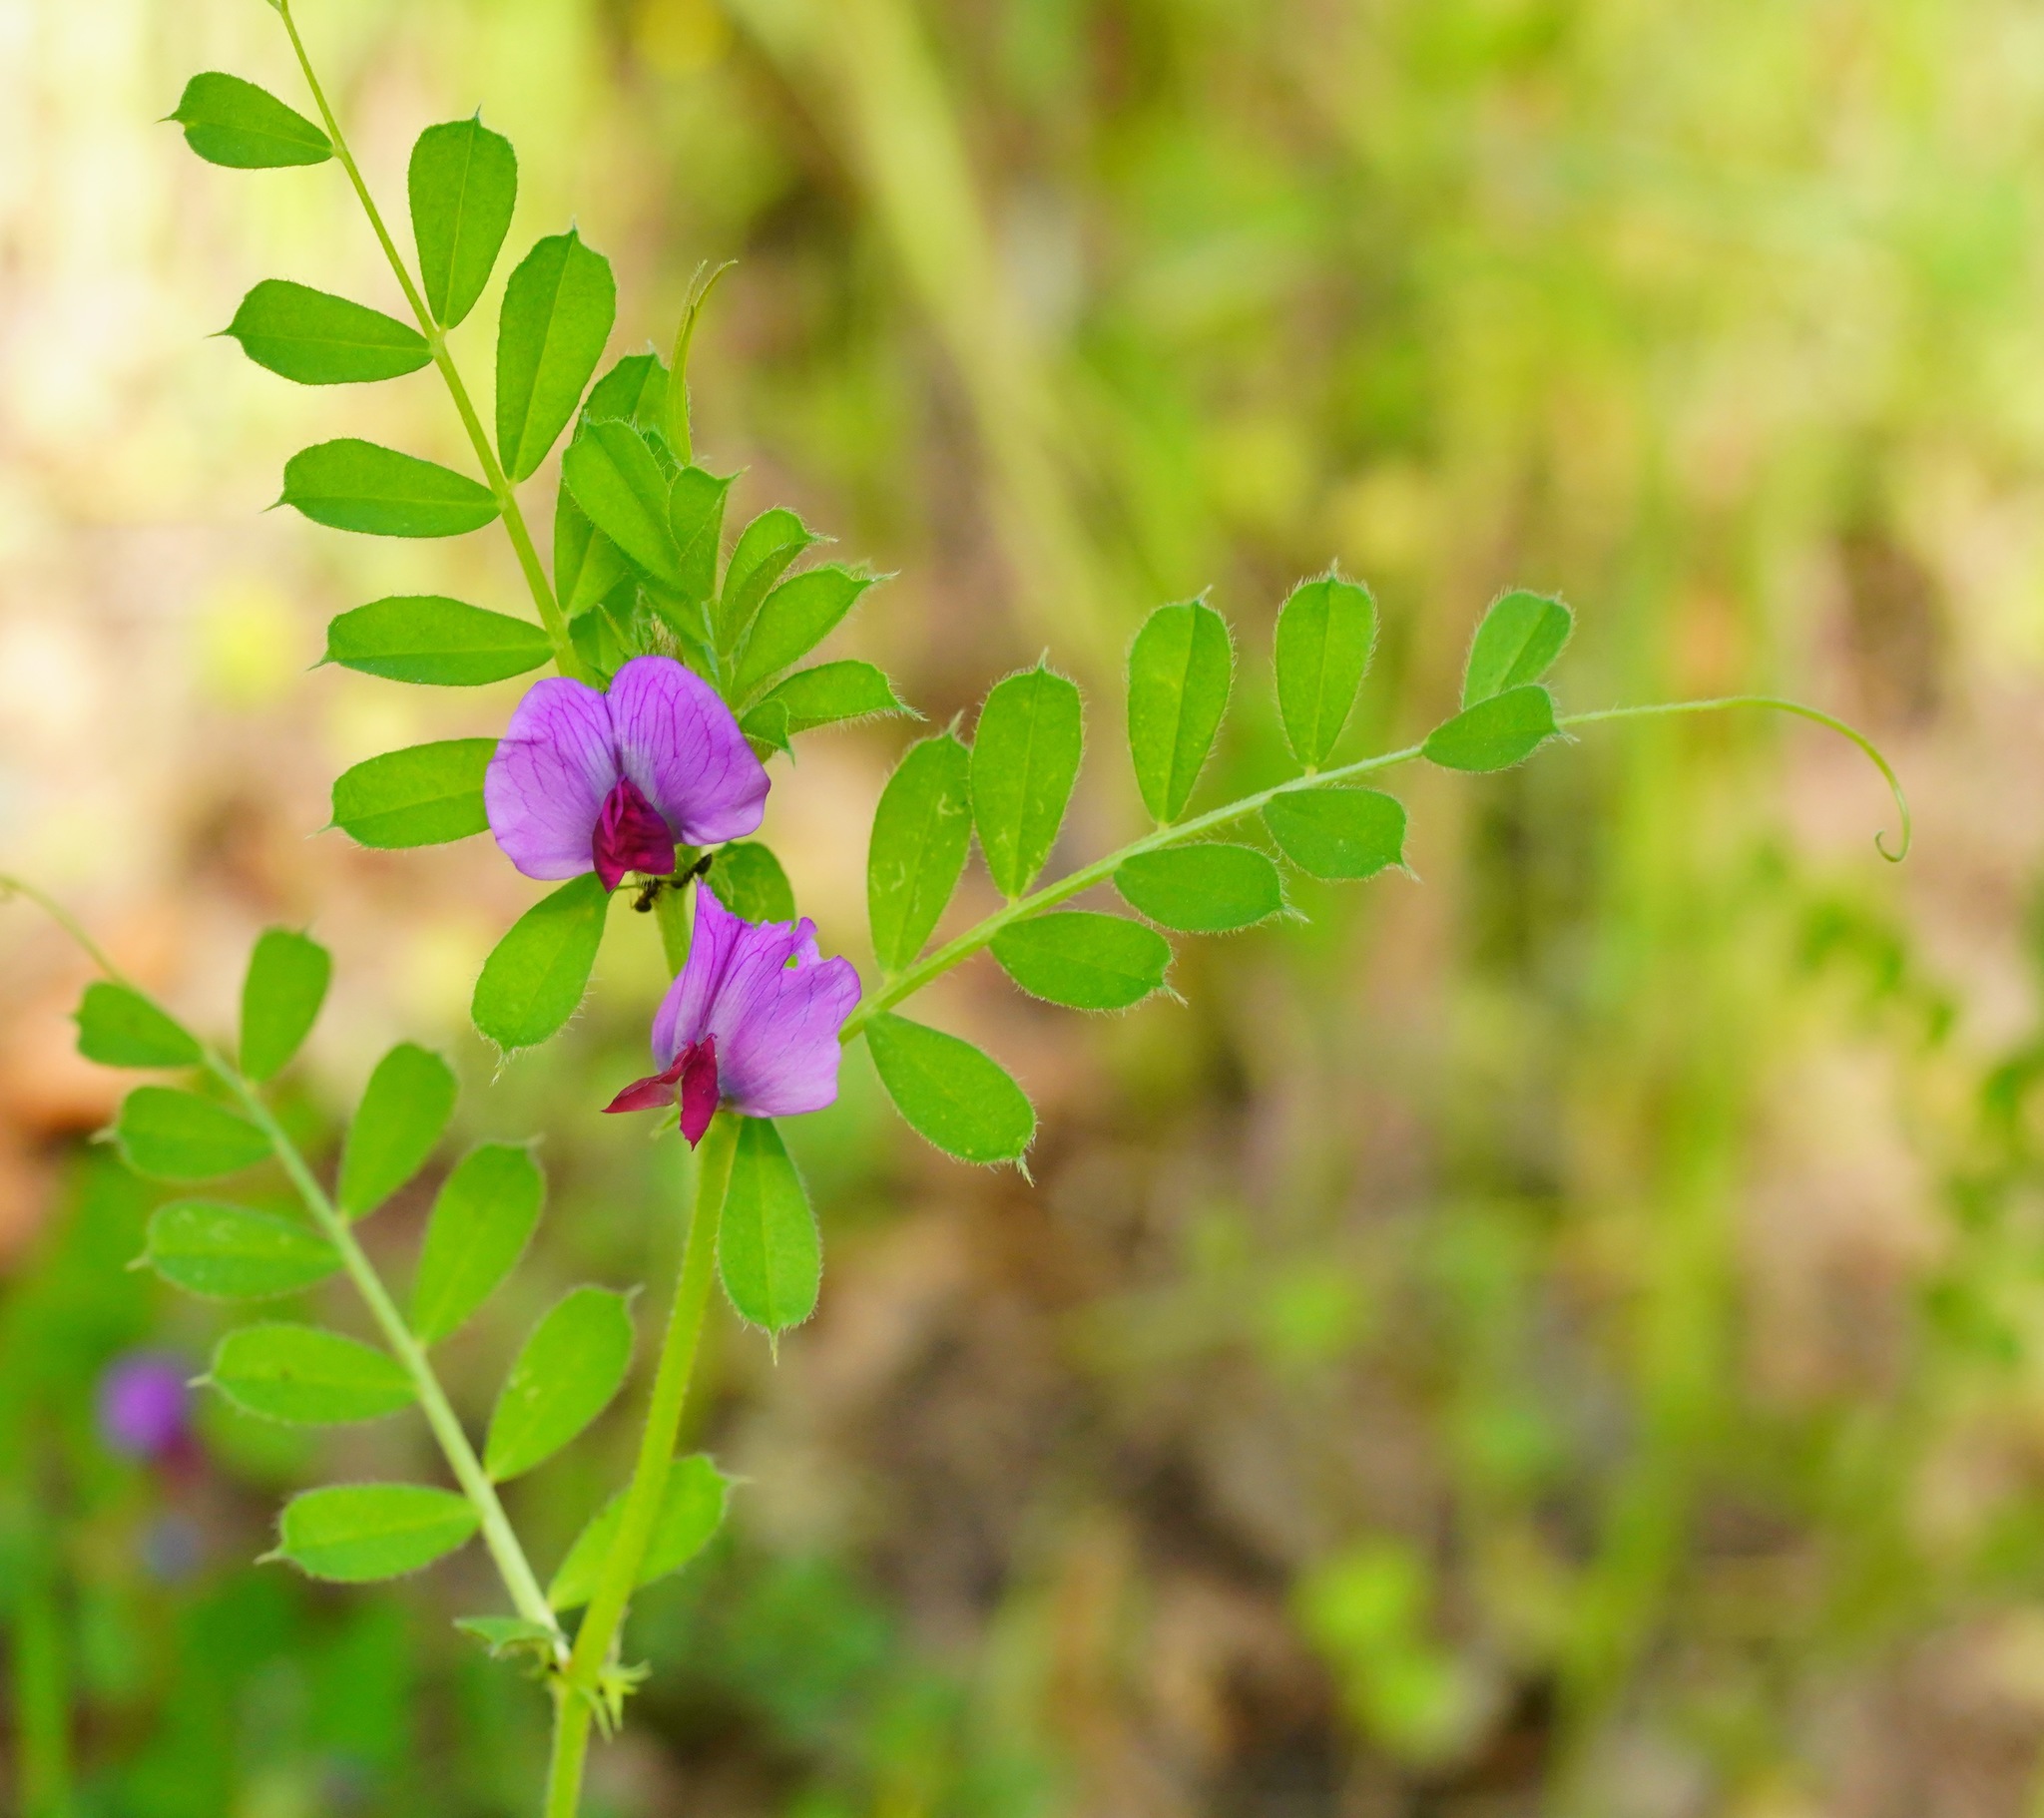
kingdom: Plantae
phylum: Tracheophyta
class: Magnoliopsida
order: Fabales
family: Fabaceae
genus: Vicia
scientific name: Vicia sativa
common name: Garden vetch
